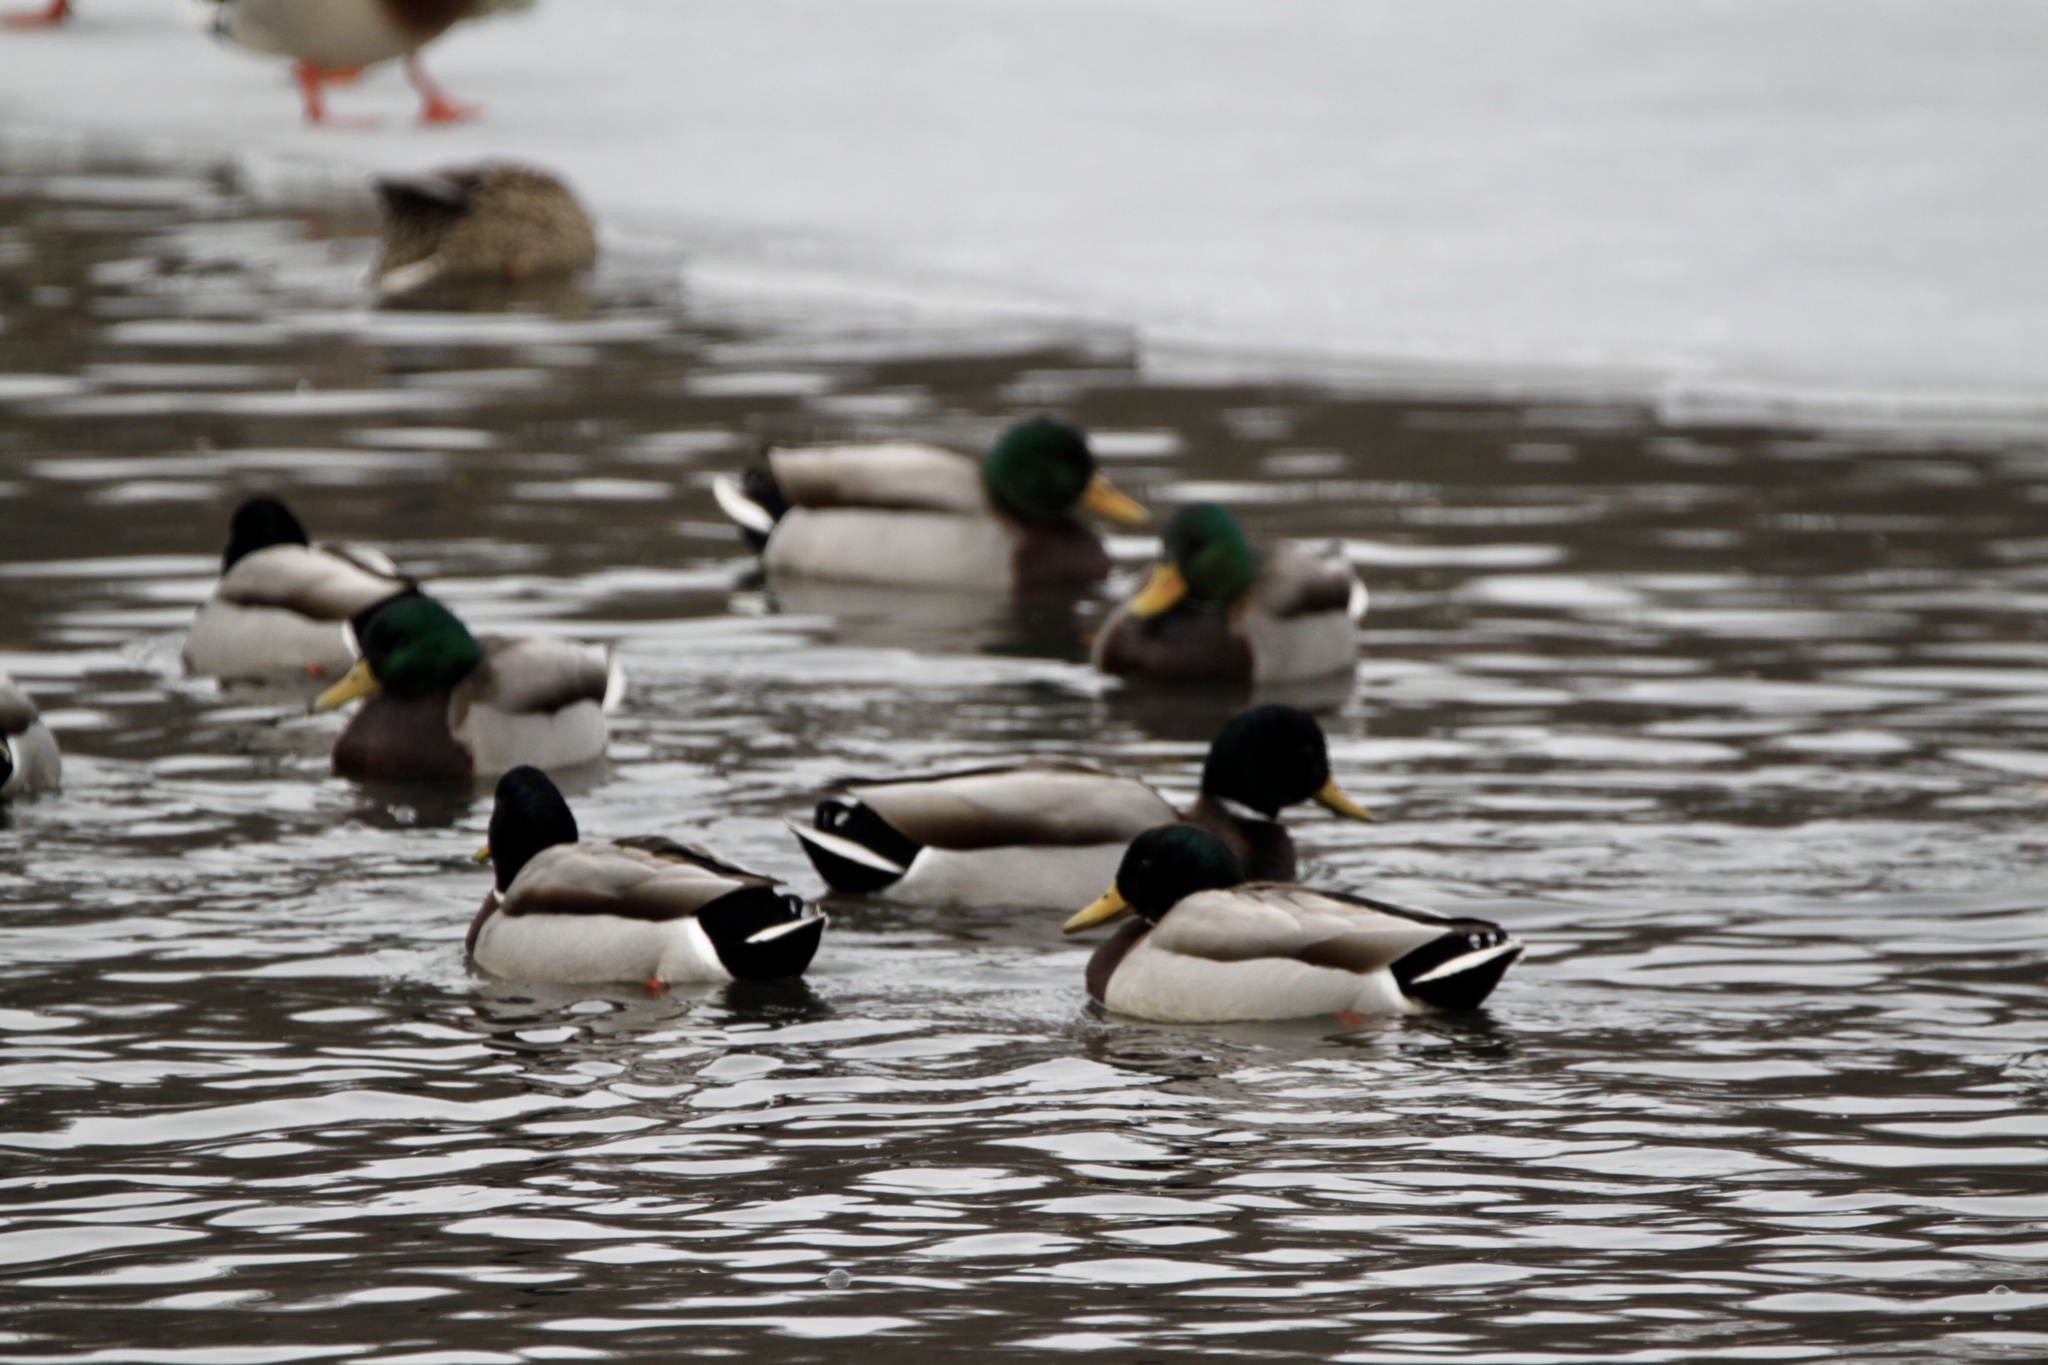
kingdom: Animalia
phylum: Chordata
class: Aves
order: Anseriformes
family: Anatidae
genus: Anas
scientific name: Anas platyrhynchos
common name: Mallard
